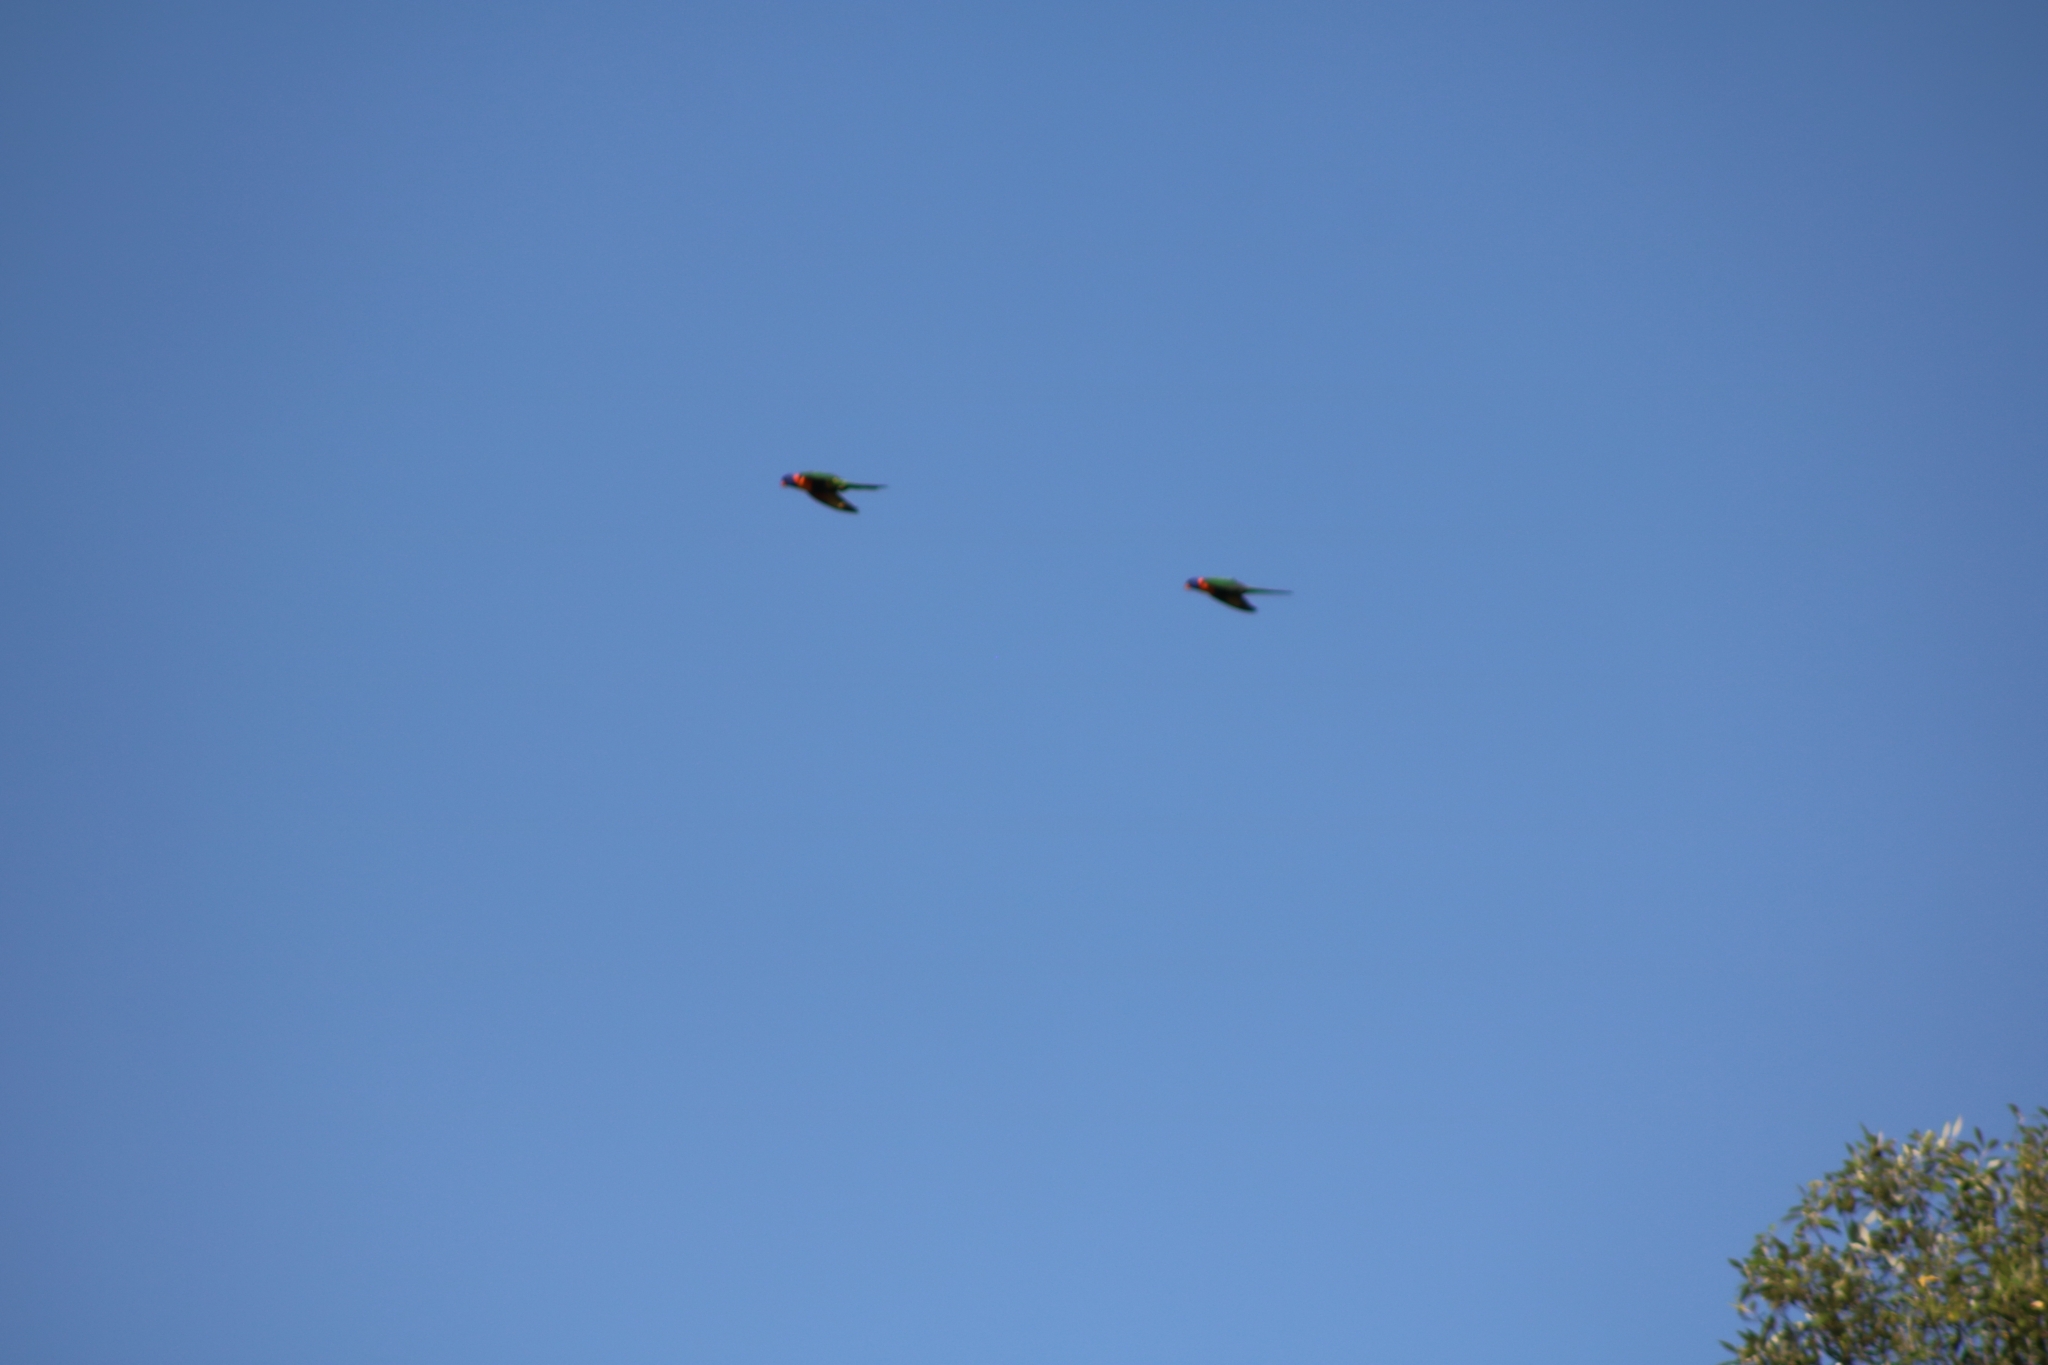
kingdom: Animalia
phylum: Chordata
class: Aves
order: Psittaciformes
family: Psittacidae
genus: Trichoglossus
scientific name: Trichoglossus rubritorquis
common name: Red-collared lorikeet
